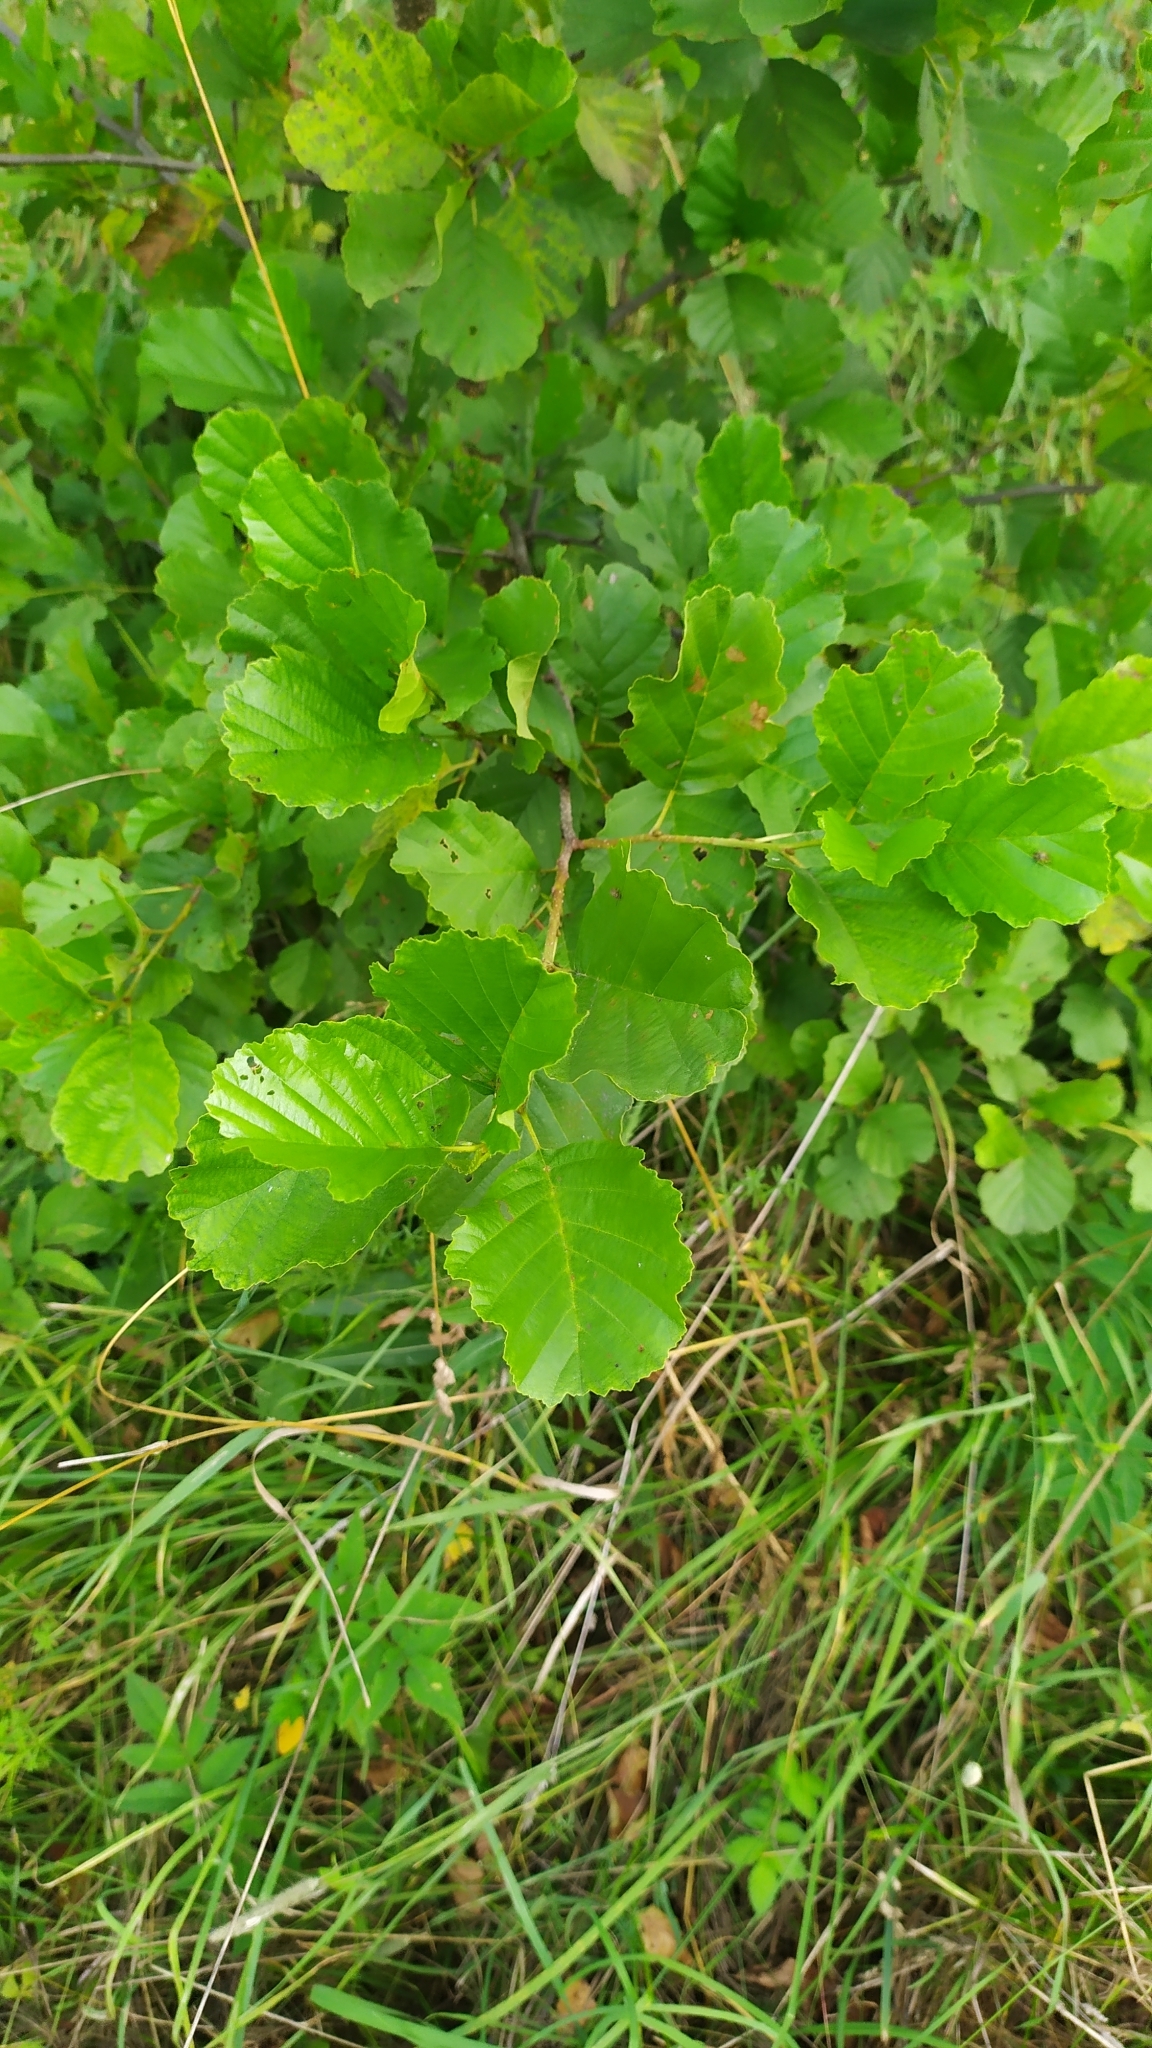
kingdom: Plantae
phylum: Tracheophyta
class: Magnoliopsida
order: Fagales
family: Betulaceae
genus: Alnus
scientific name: Alnus glutinosa
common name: Black alder
